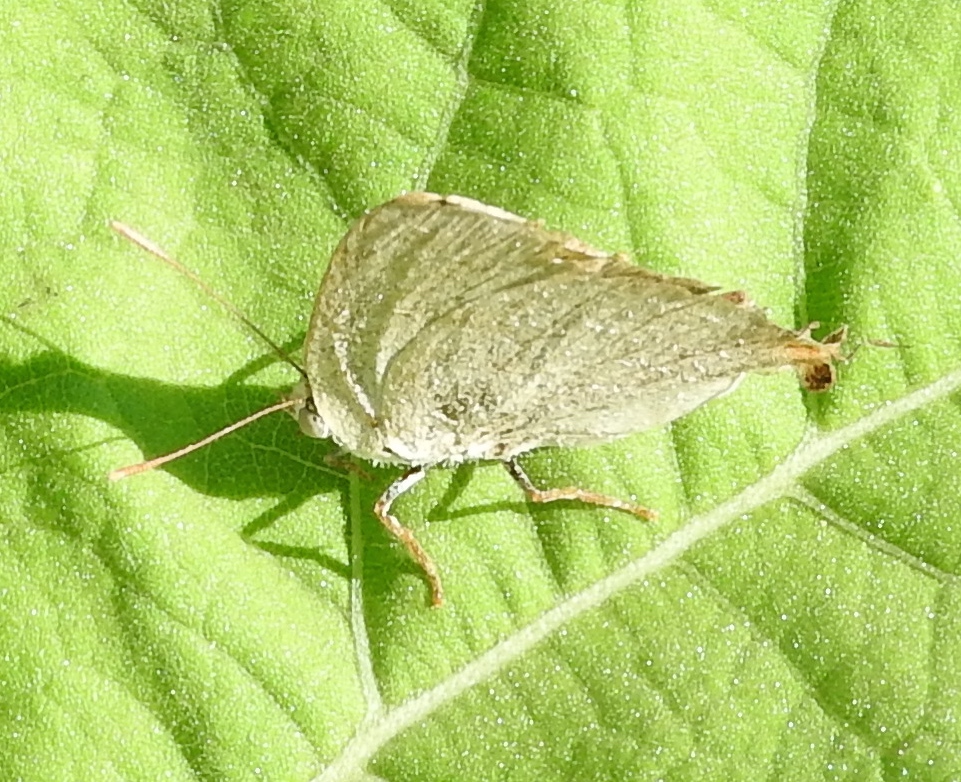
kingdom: Animalia
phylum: Arthropoda
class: Insecta
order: Lepidoptera
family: Lycaenidae
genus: Dolymorpha
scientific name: Dolymorpha jada
